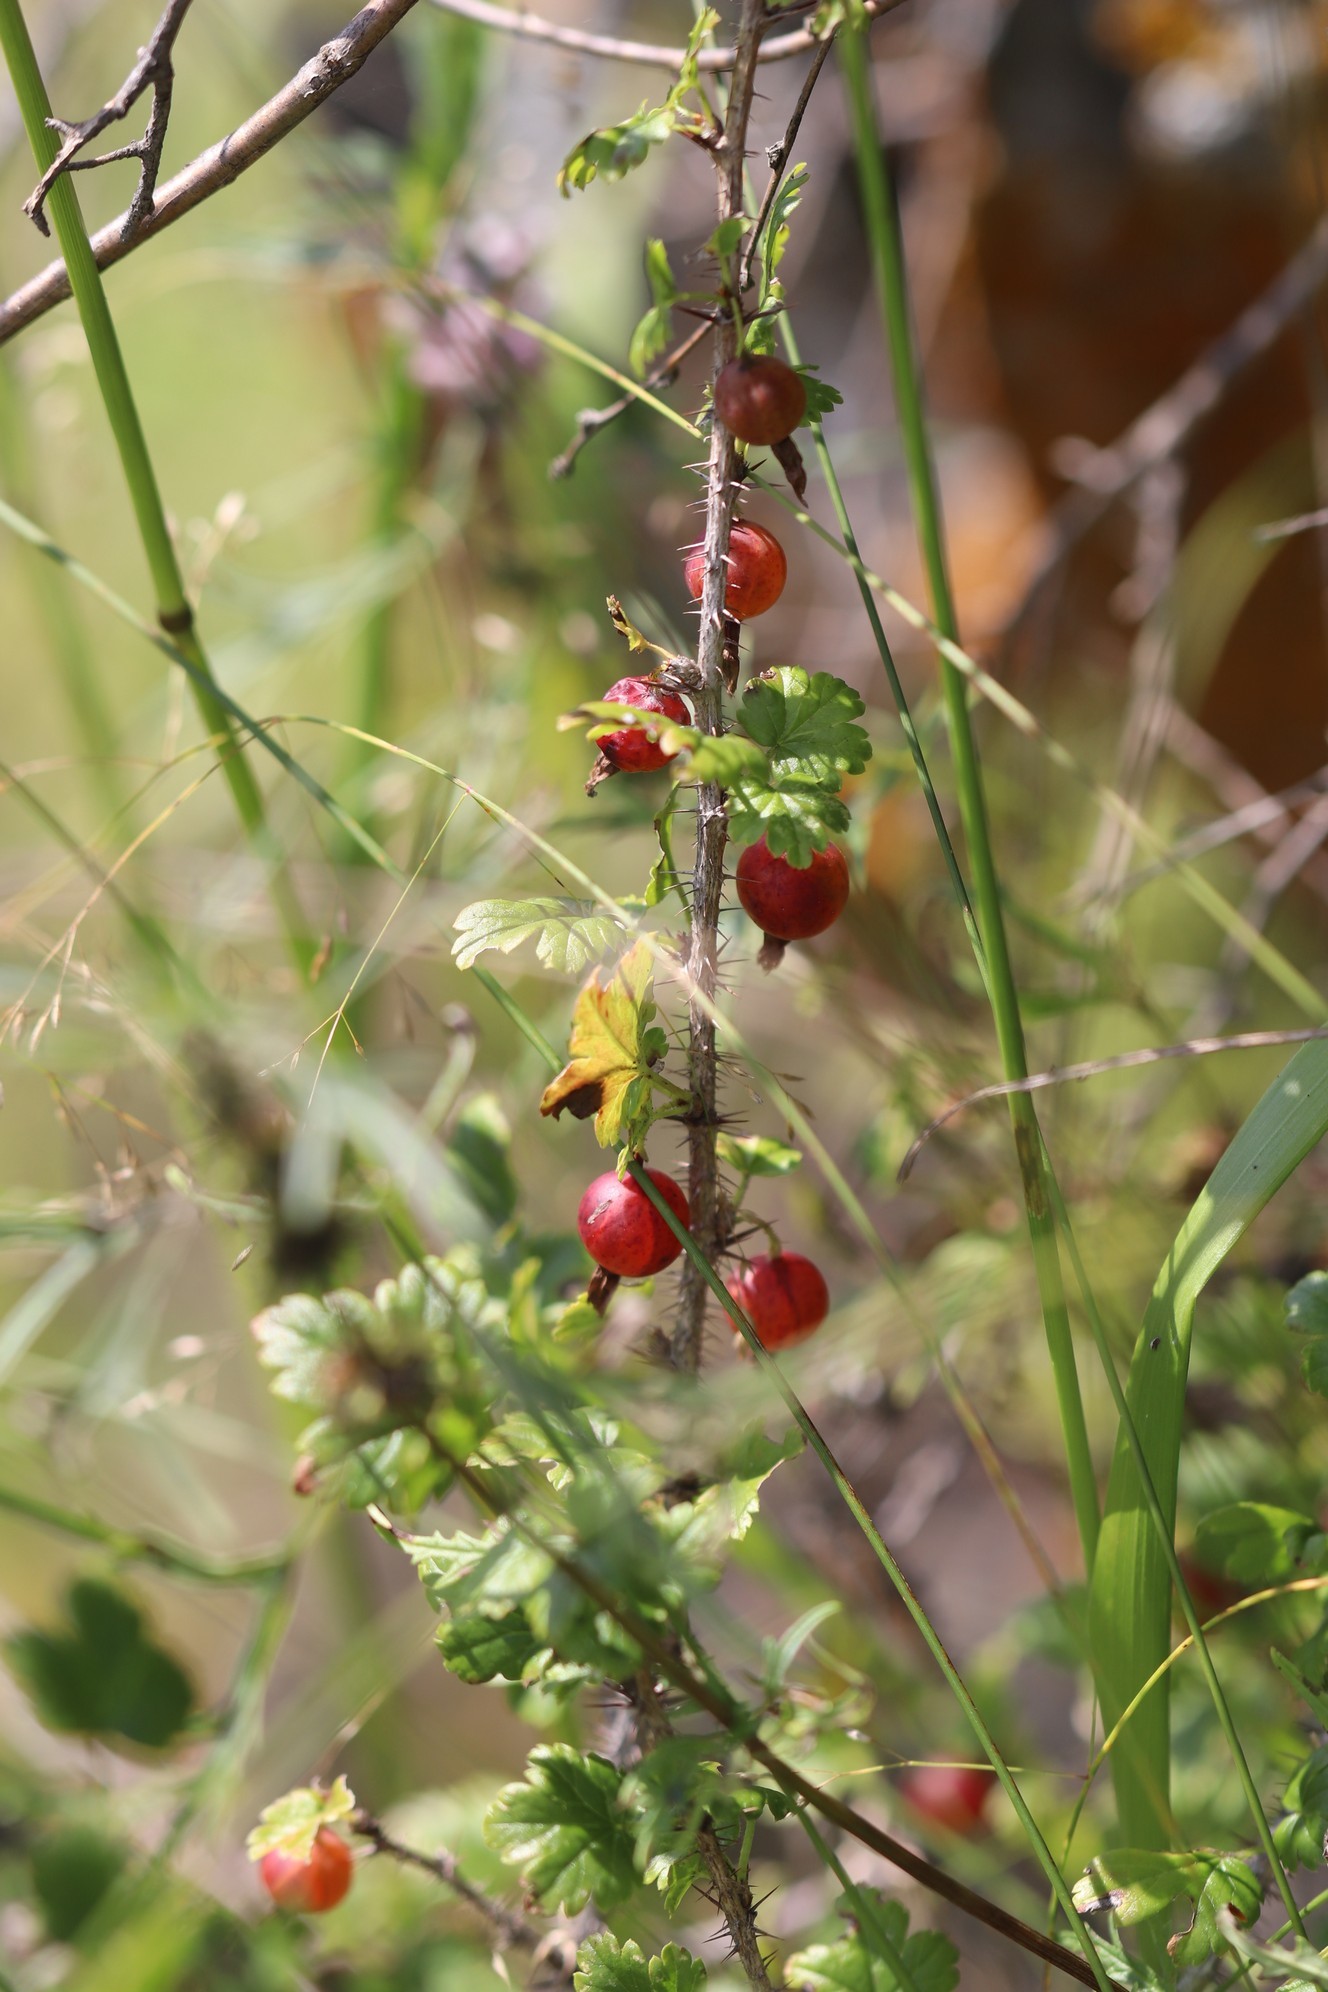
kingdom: Plantae
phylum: Tracheophyta
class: Magnoliopsida
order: Saxifragales
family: Grossulariaceae
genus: Ribes
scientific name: Ribes aciculare
